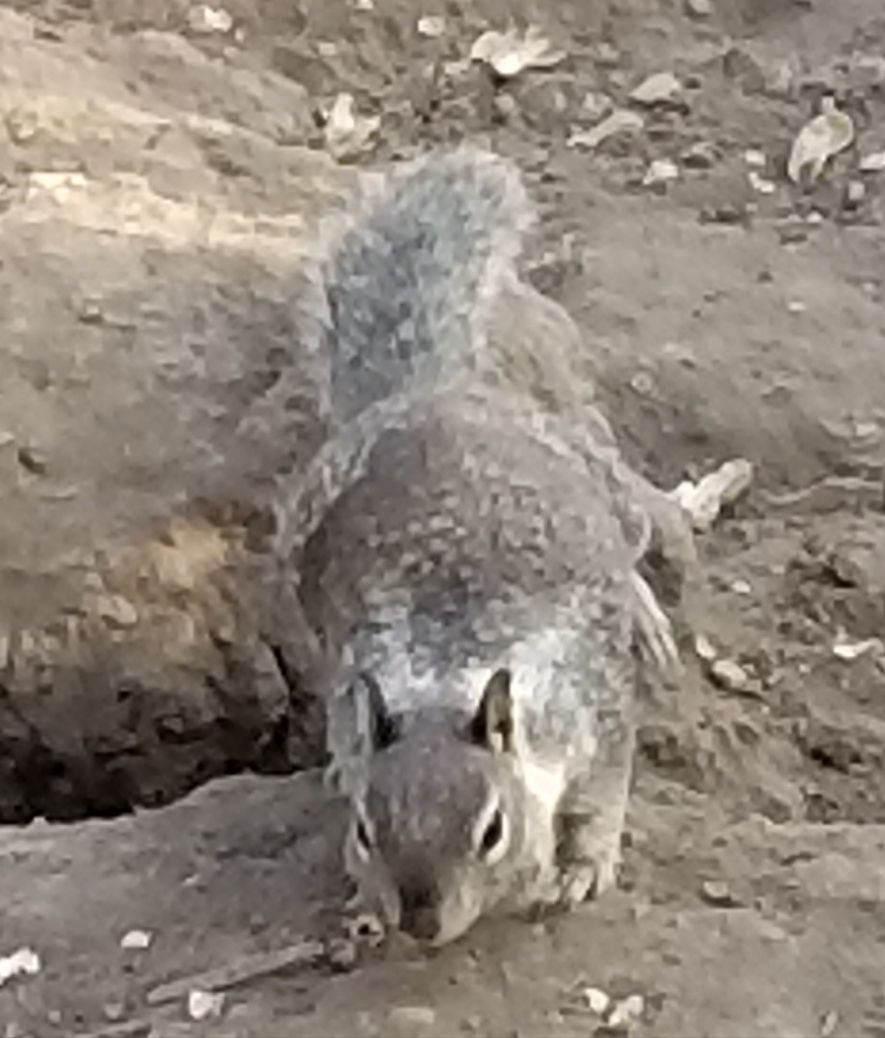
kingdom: Animalia
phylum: Chordata
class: Mammalia
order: Rodentia
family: Sciuridae
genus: Otospermophilus
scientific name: Otospermophilus beecheyi
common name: California ground squirrel
